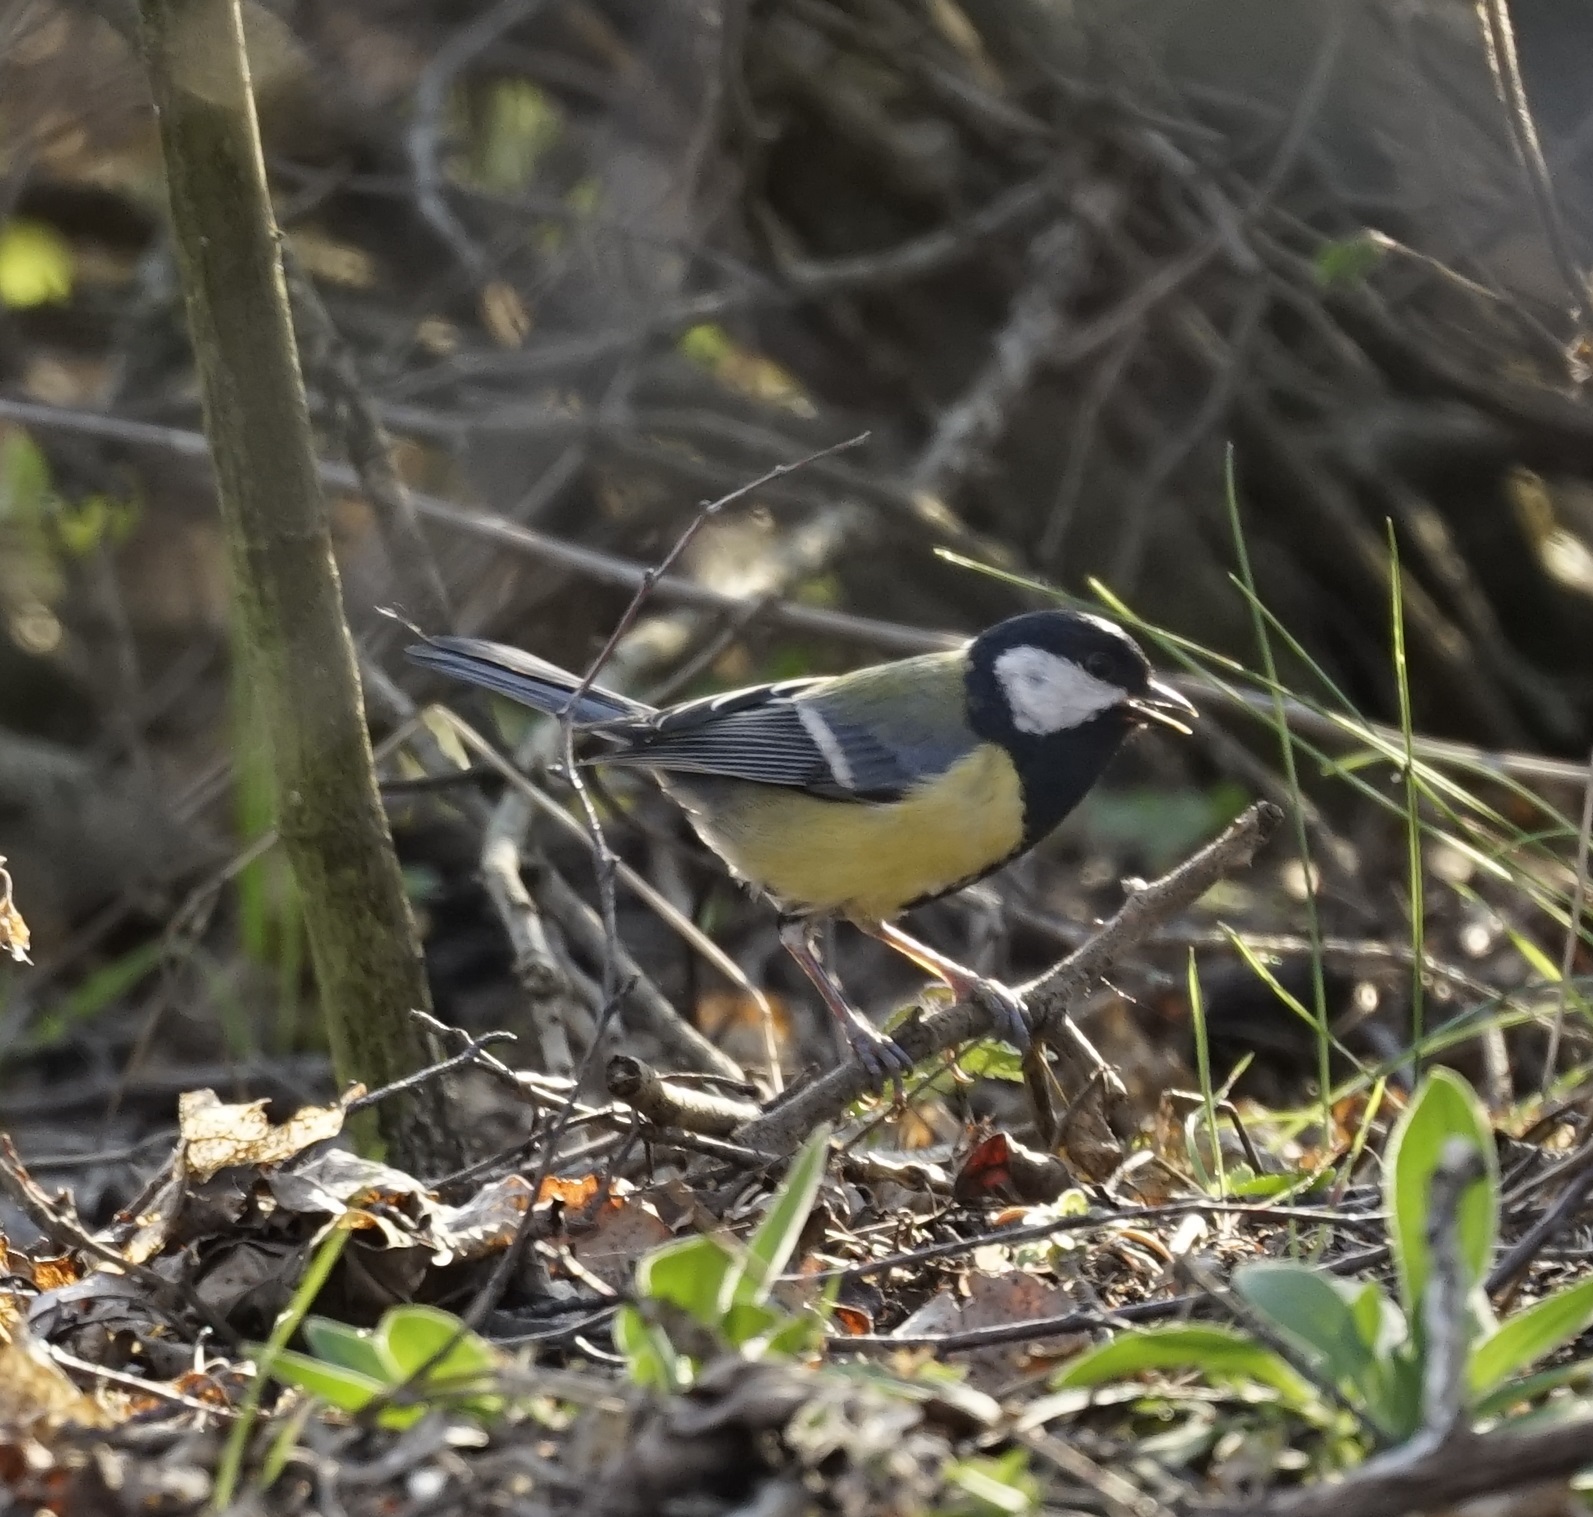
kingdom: Animalia
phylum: Chordata
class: Aves
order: Passeriformes
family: Paridae
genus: Parus
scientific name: Parus major
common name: Great tit
